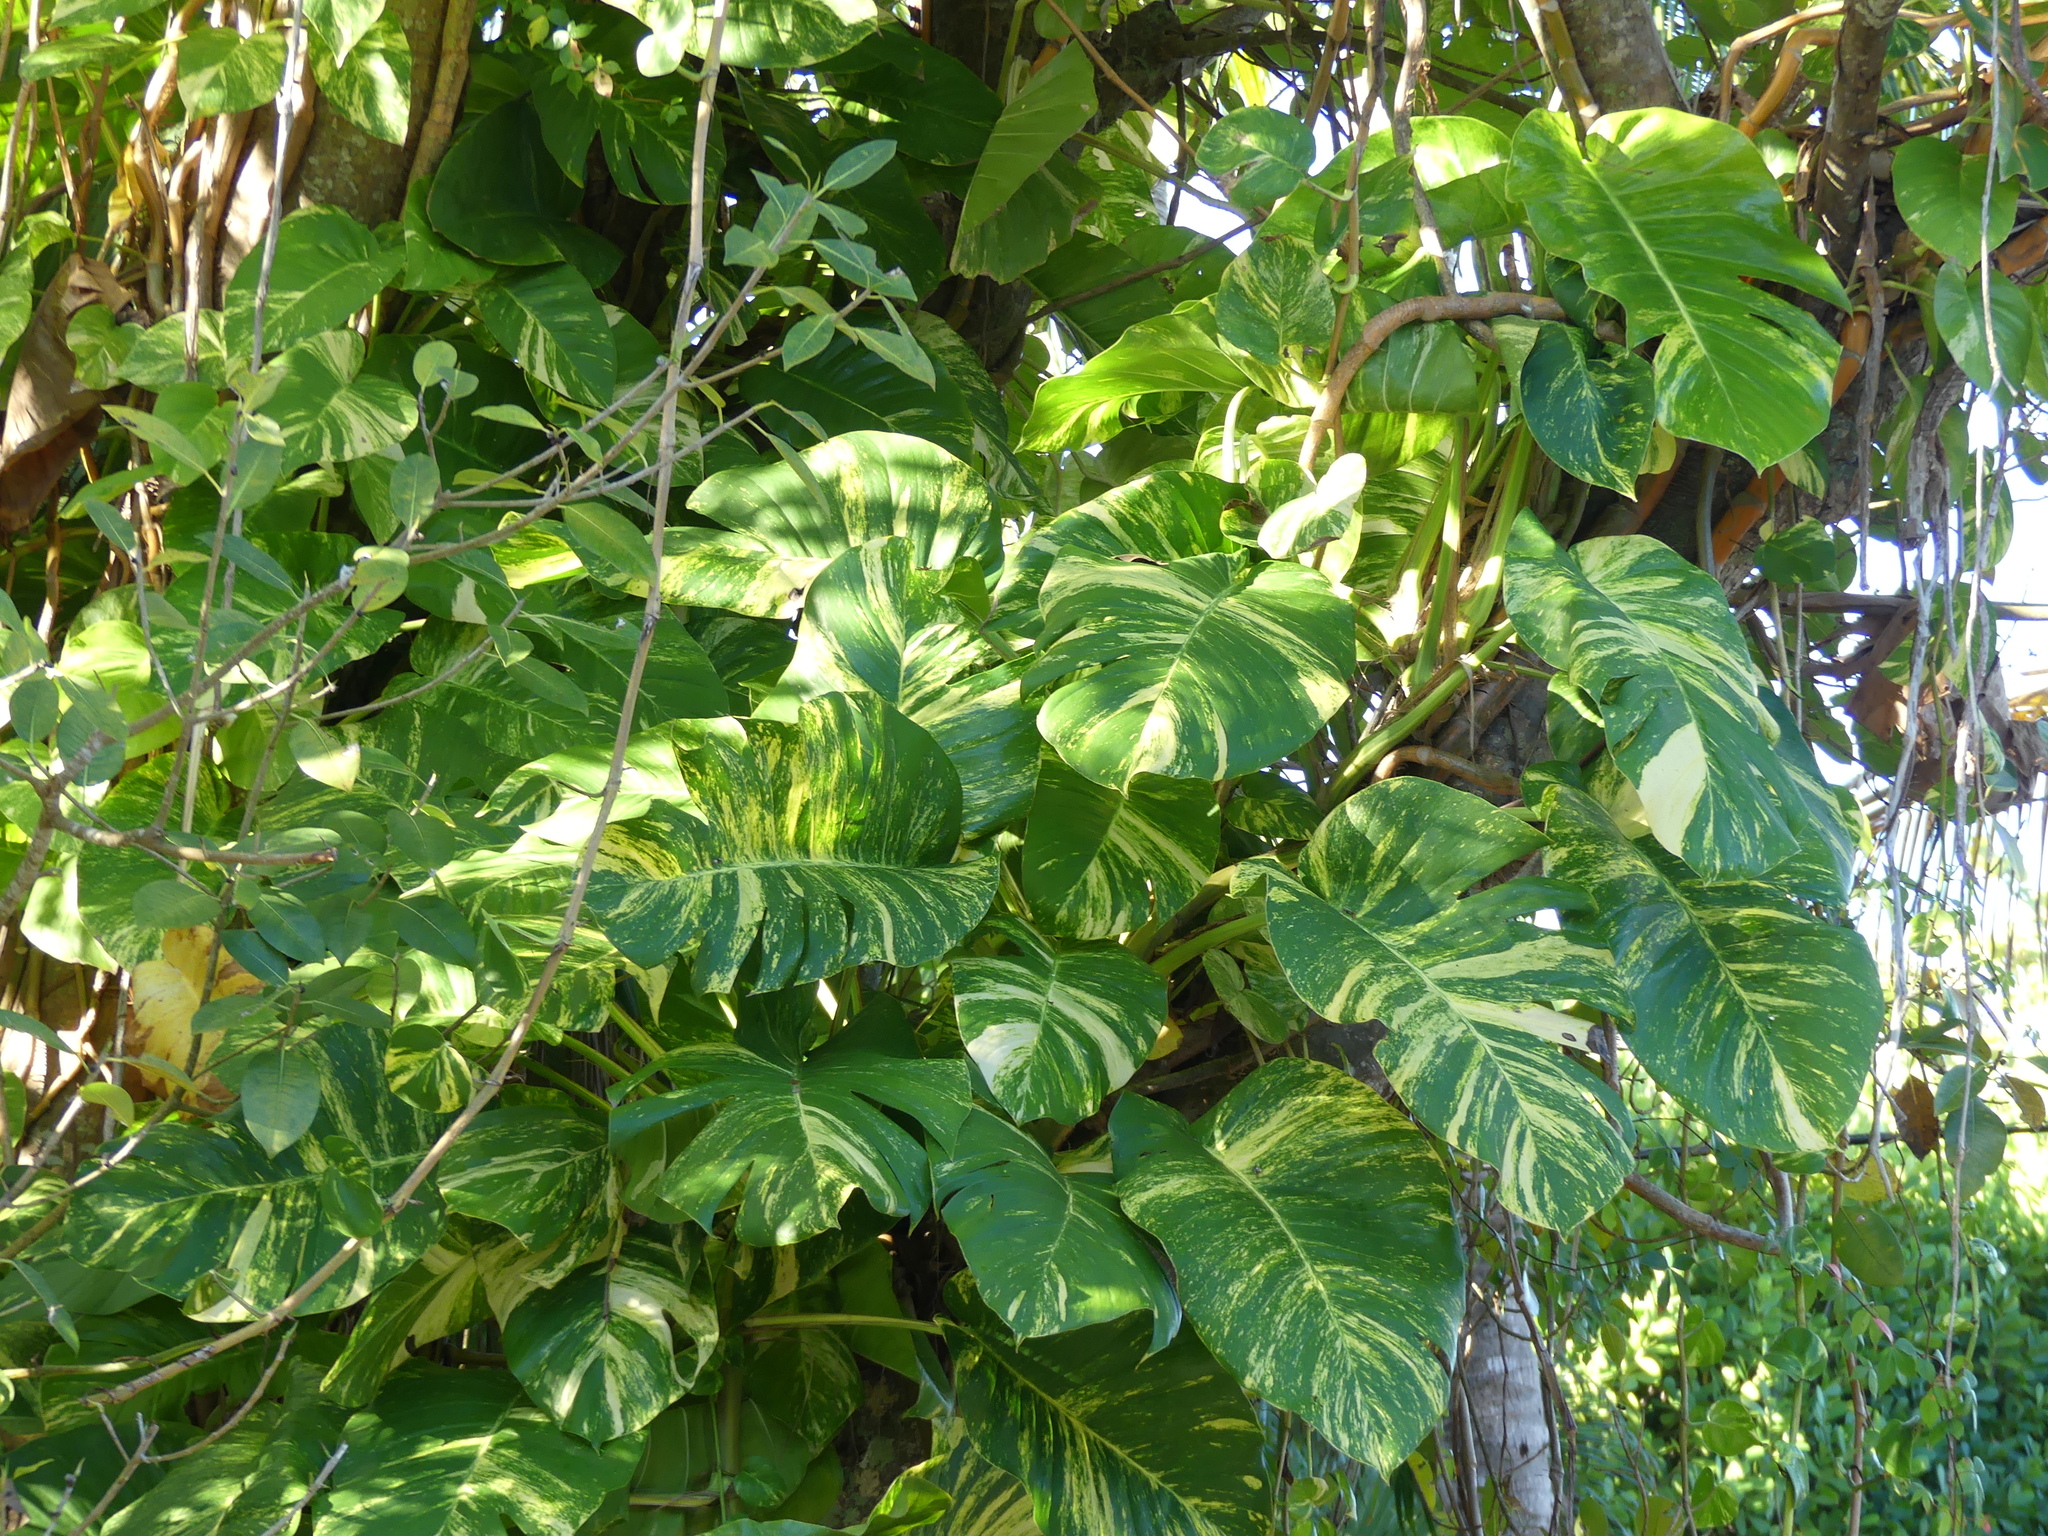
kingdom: Plantae
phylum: Tracheophyta
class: Liliopsida
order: Alismatales
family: Araceae
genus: Epipremnum
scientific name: Epipremnum aureum
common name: Golden hunter's-robe
